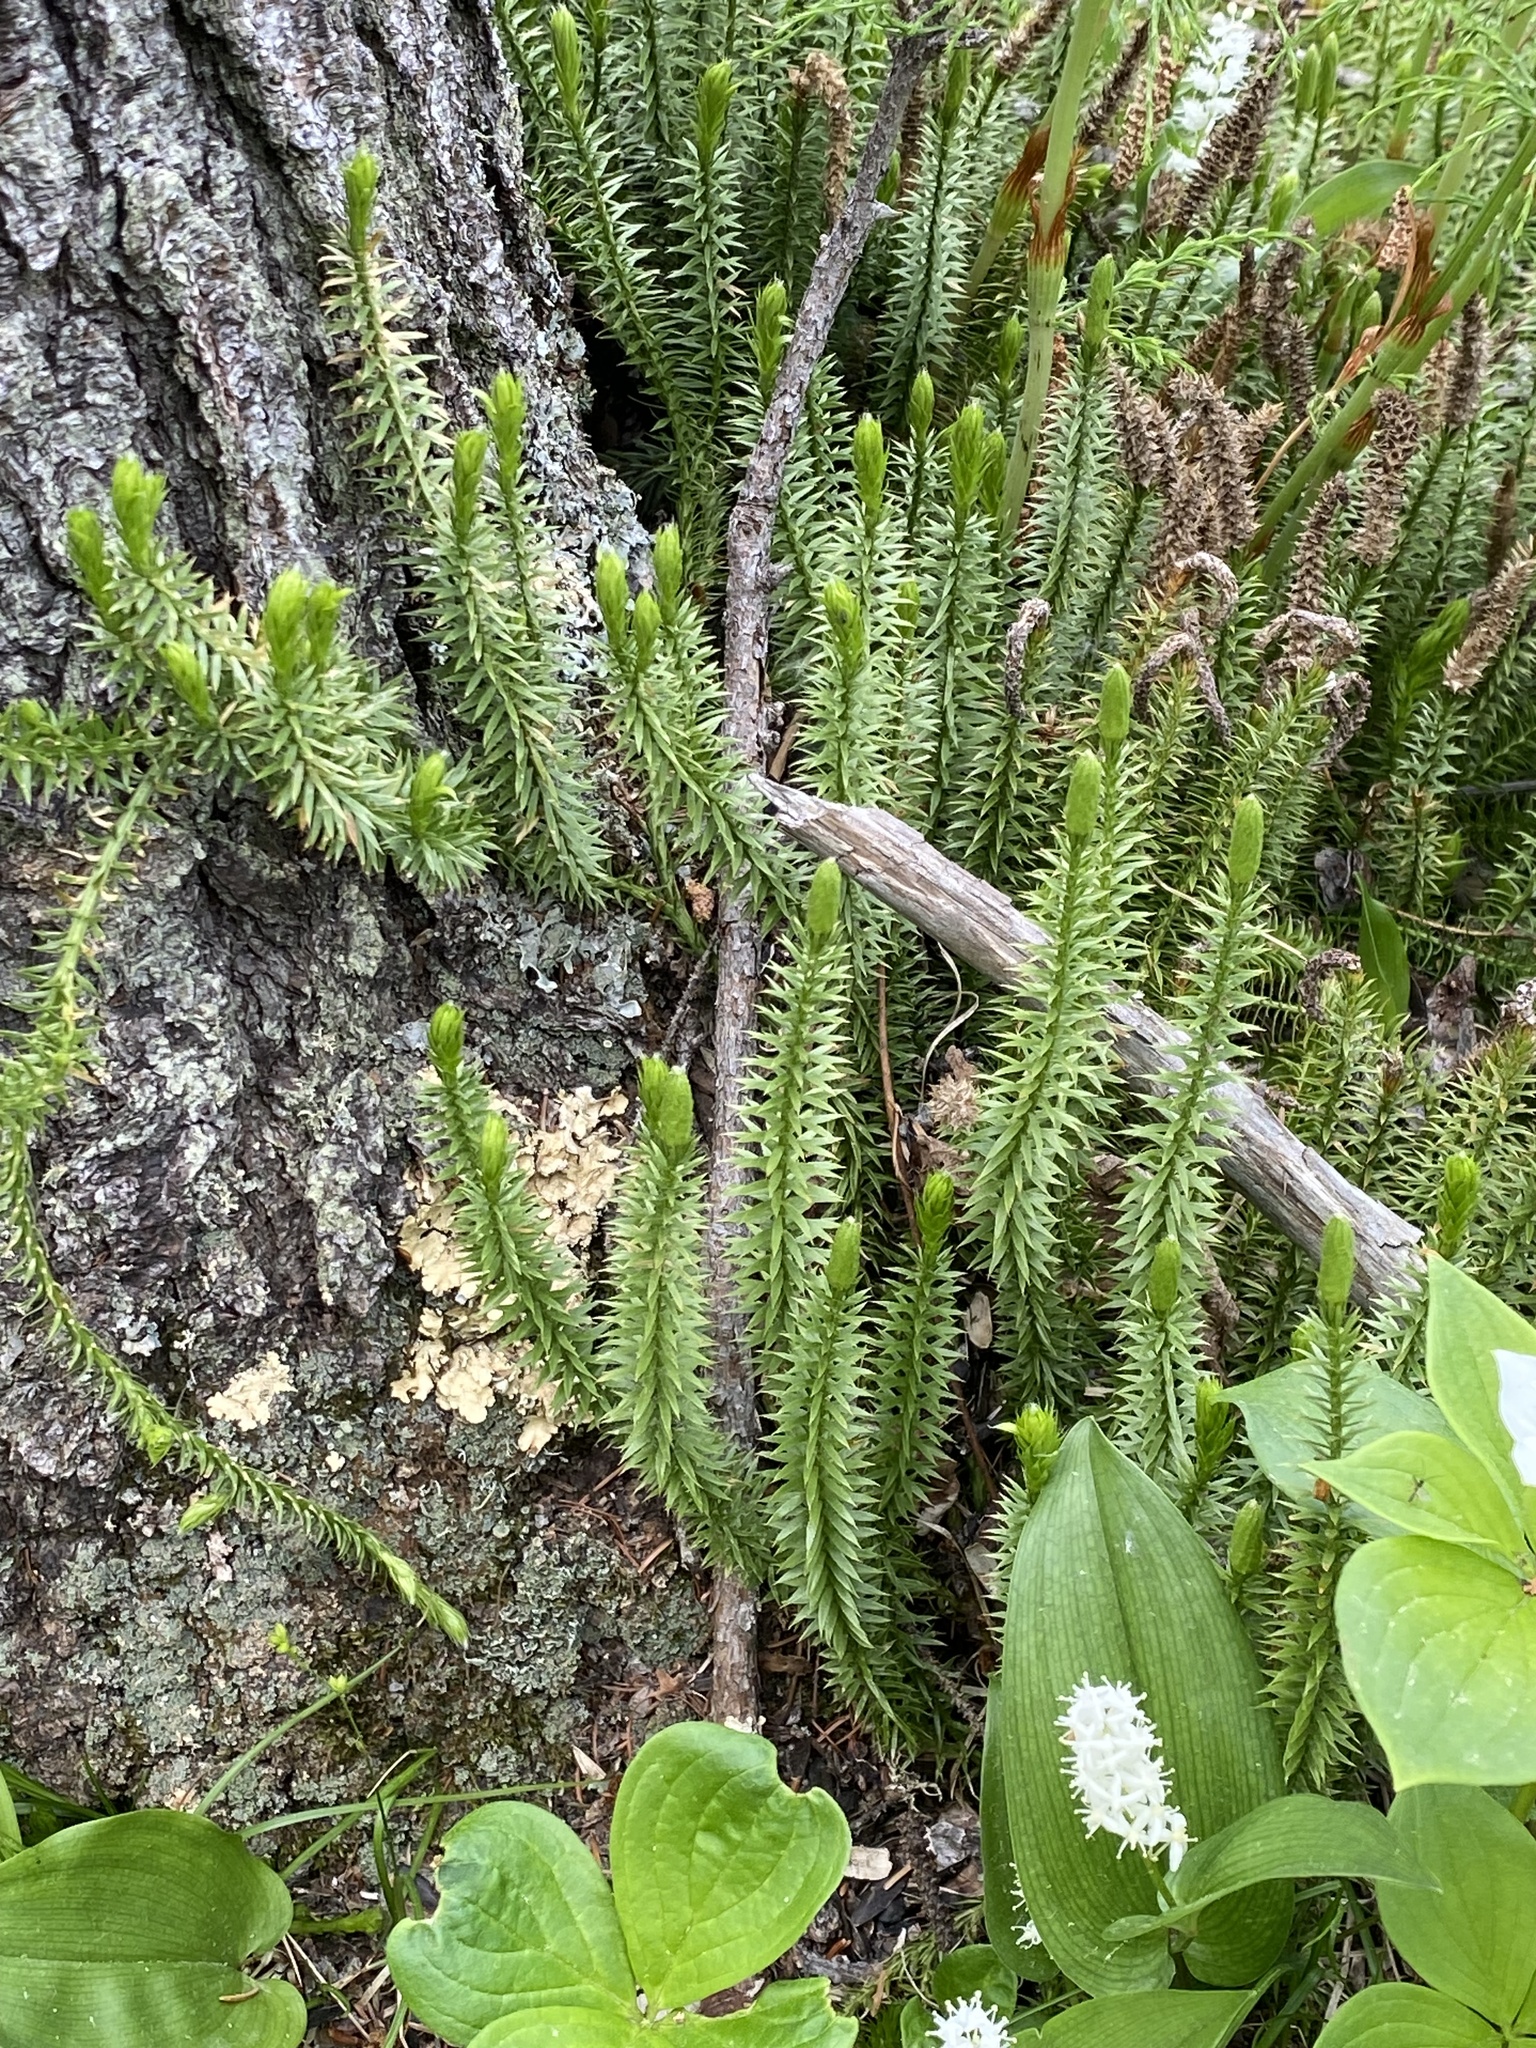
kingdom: Plantae
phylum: Tracheophyta
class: Lycopodiopsida
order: Lycopodiales
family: Lycopodiaceae
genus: Spinulum
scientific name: Spinulum annotinum
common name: Interrupted club-moss
